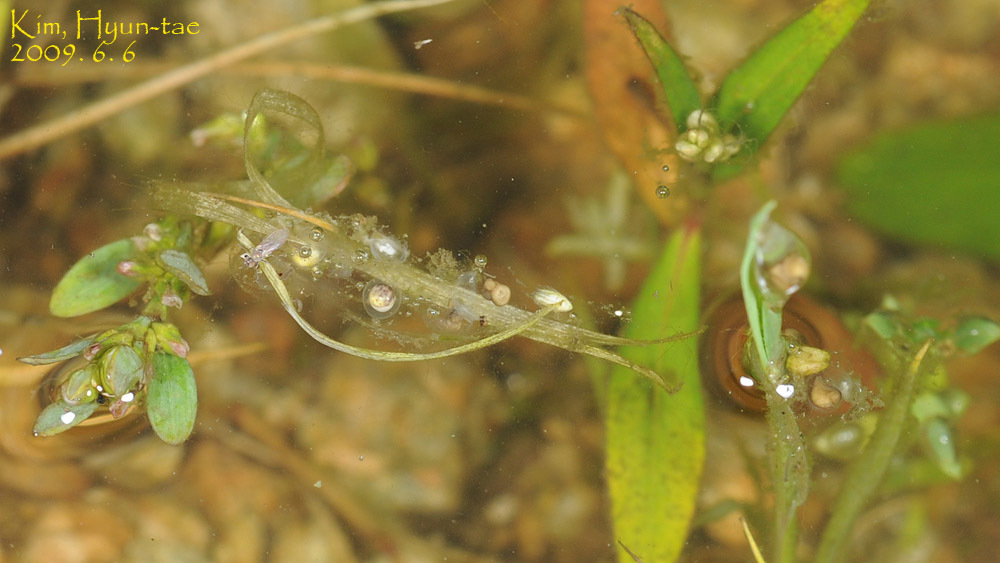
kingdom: Animalia
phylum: Chordata
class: Amphibia
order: Anura
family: Hylidae
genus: Dryophytes
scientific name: Dryophytes japonicus
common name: Japanese treefrog
